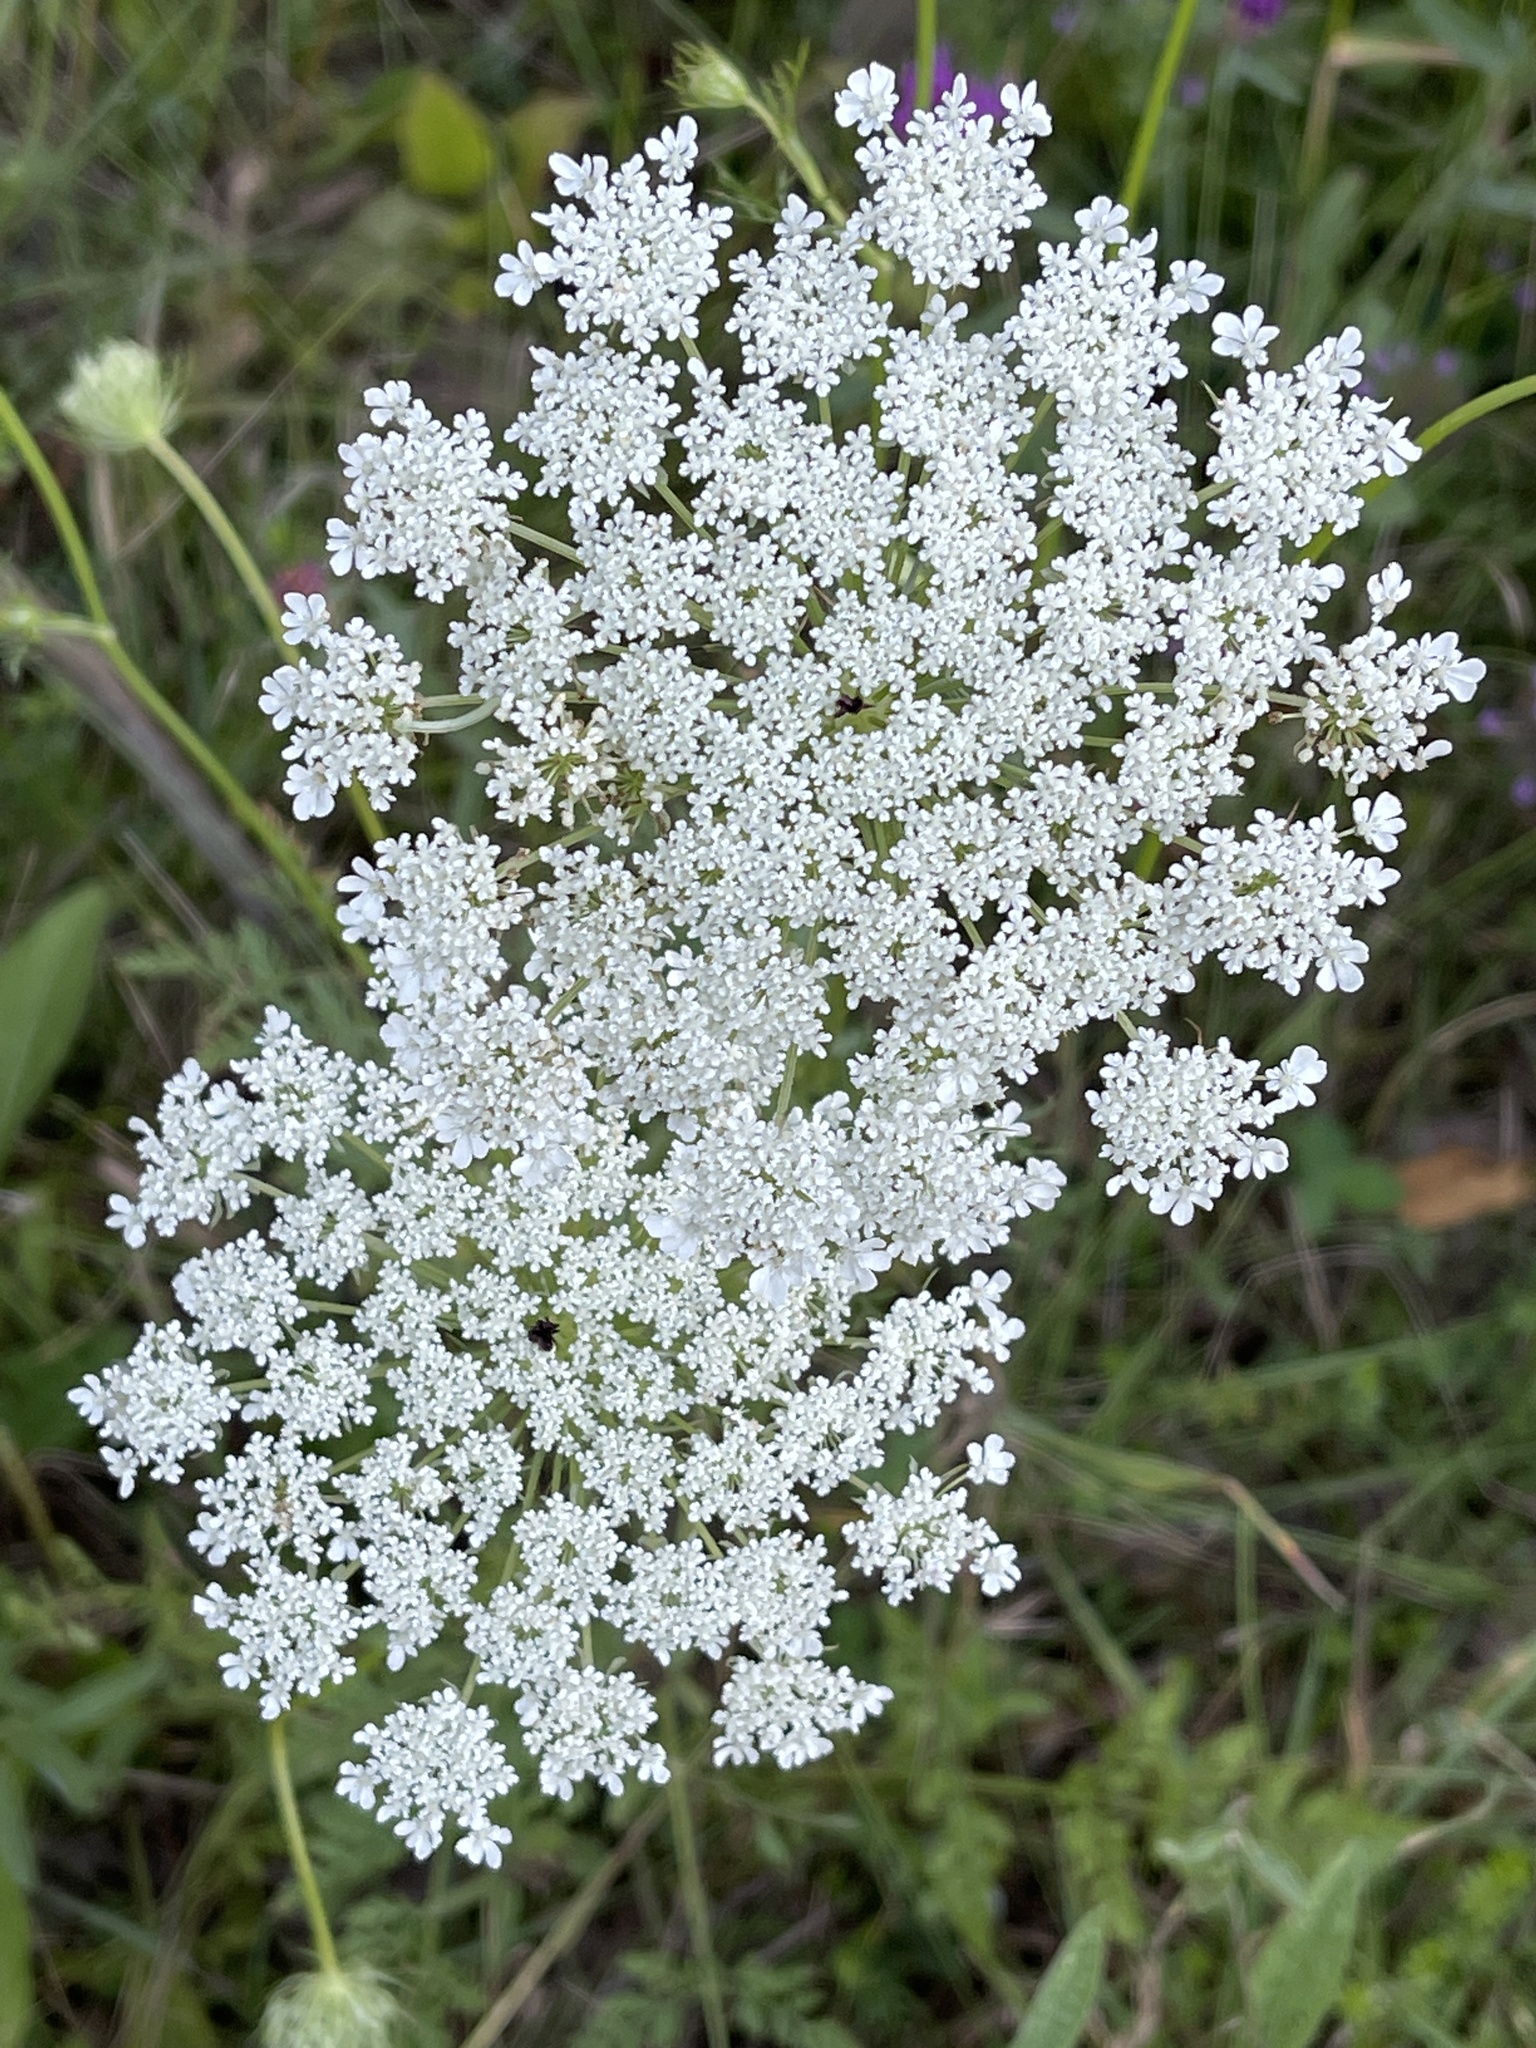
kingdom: Plantae
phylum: Tracheophyta
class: Magnoliopsida
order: Apiales
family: Apiaceae
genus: Daucus
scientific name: Daucus carota
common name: Wild carrot
